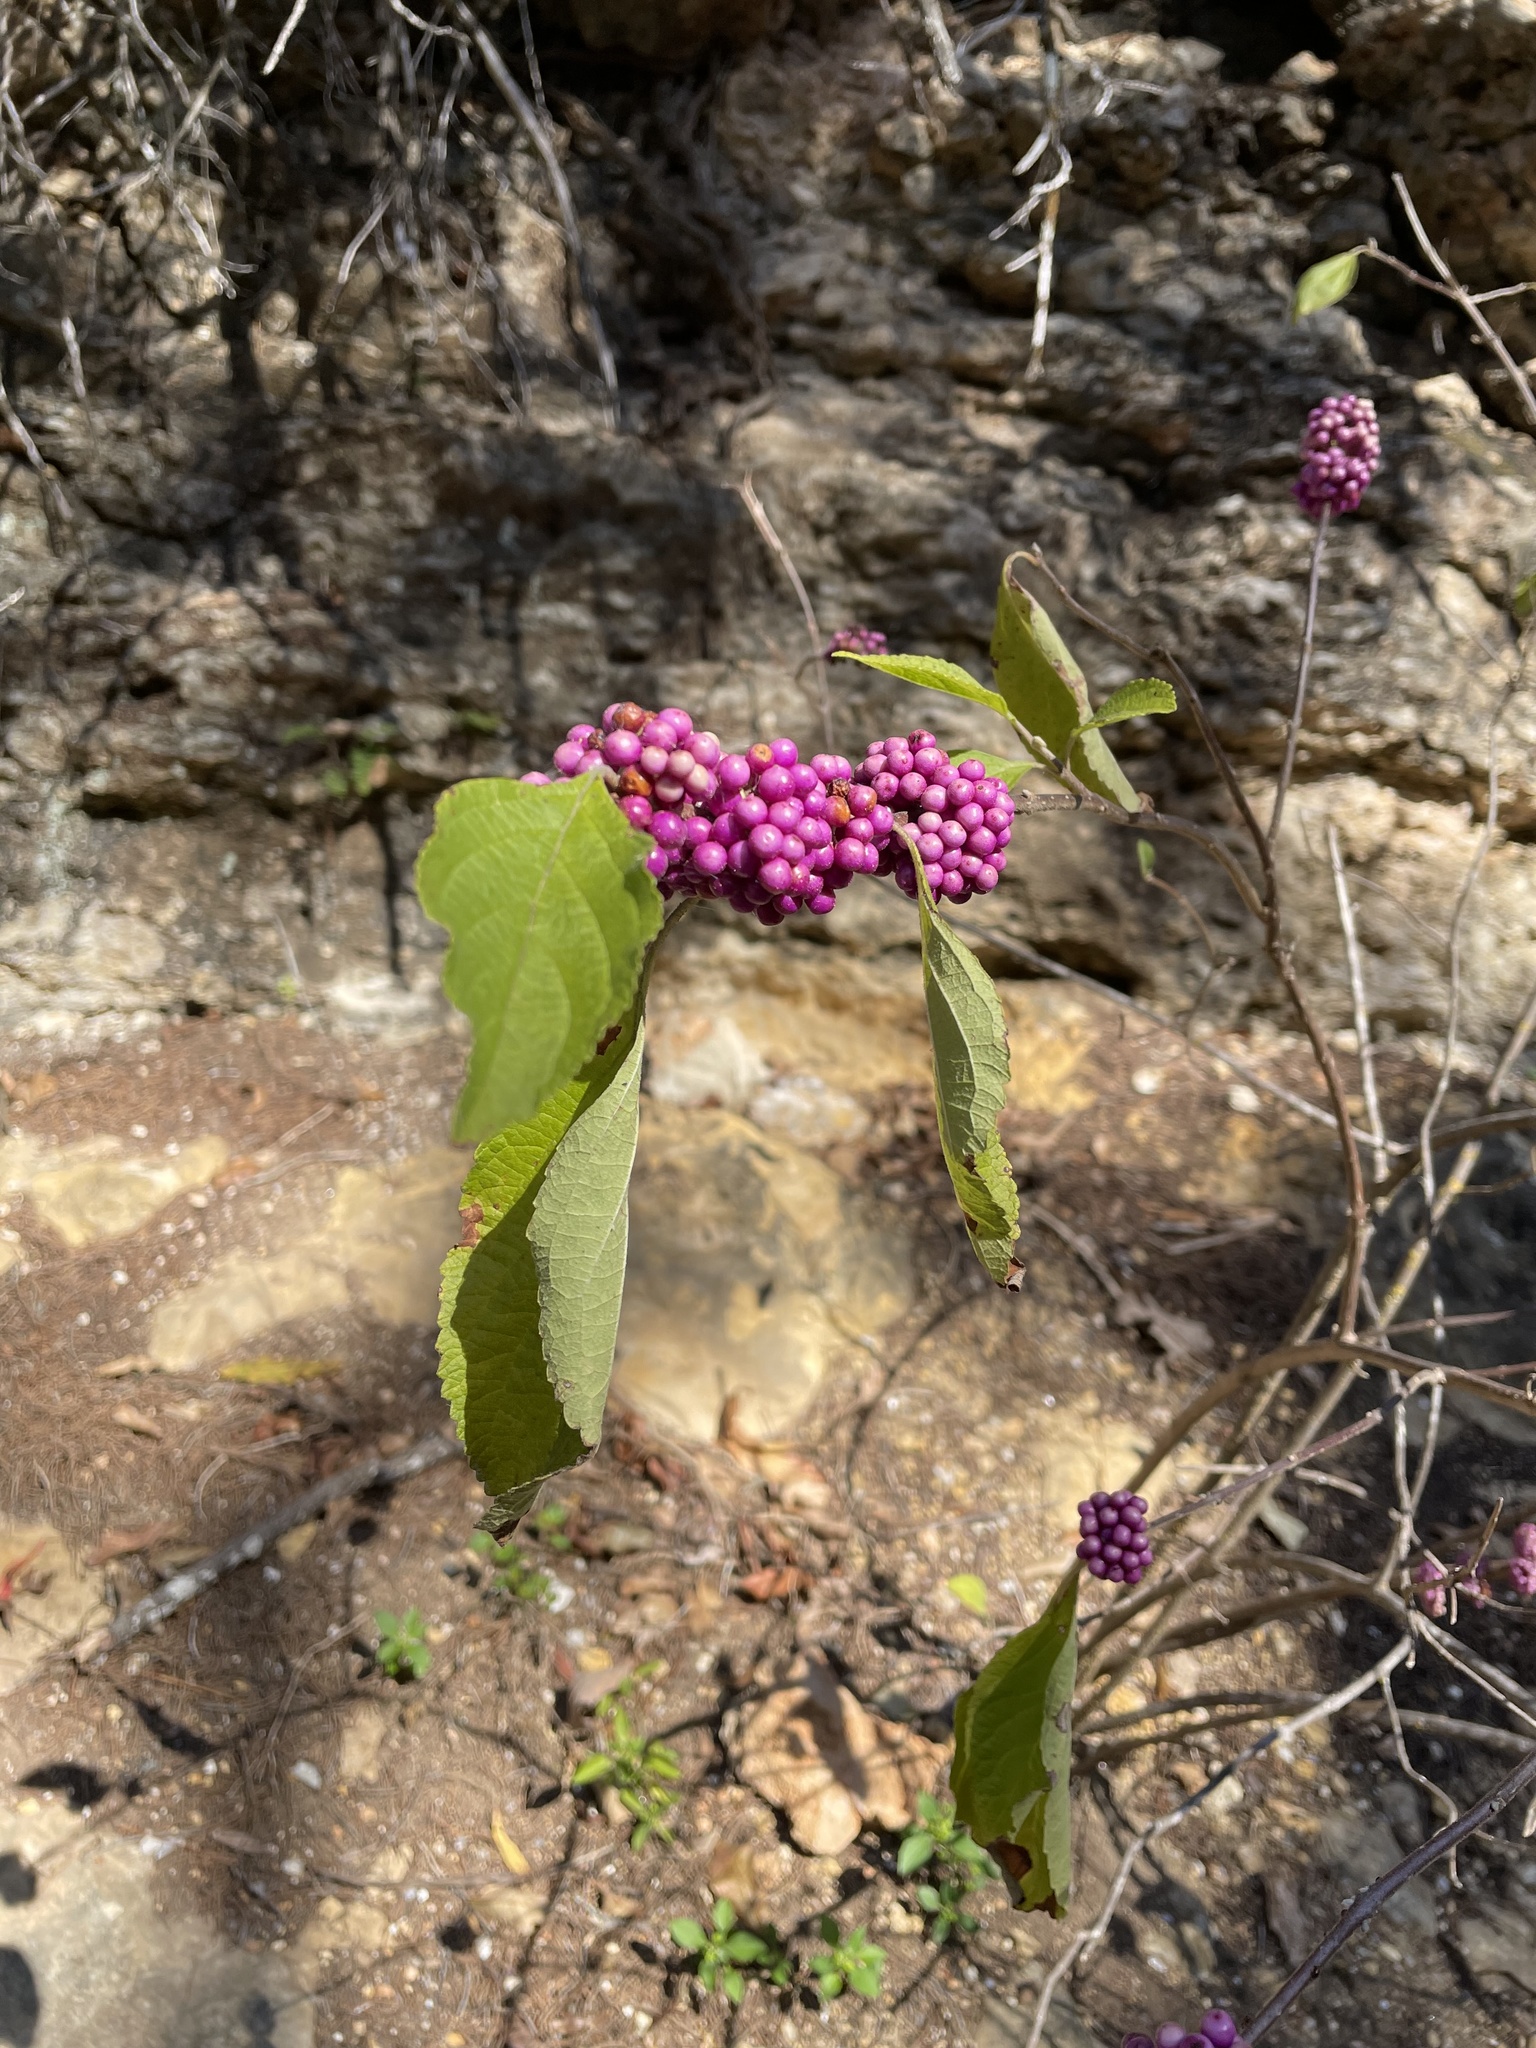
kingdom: Plantae
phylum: Tracheophyta
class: Magnoliopsida
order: Lamiales
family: Lamiaceae
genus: Callicarpa
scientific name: Callicarpa americana
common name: American beautyberry
